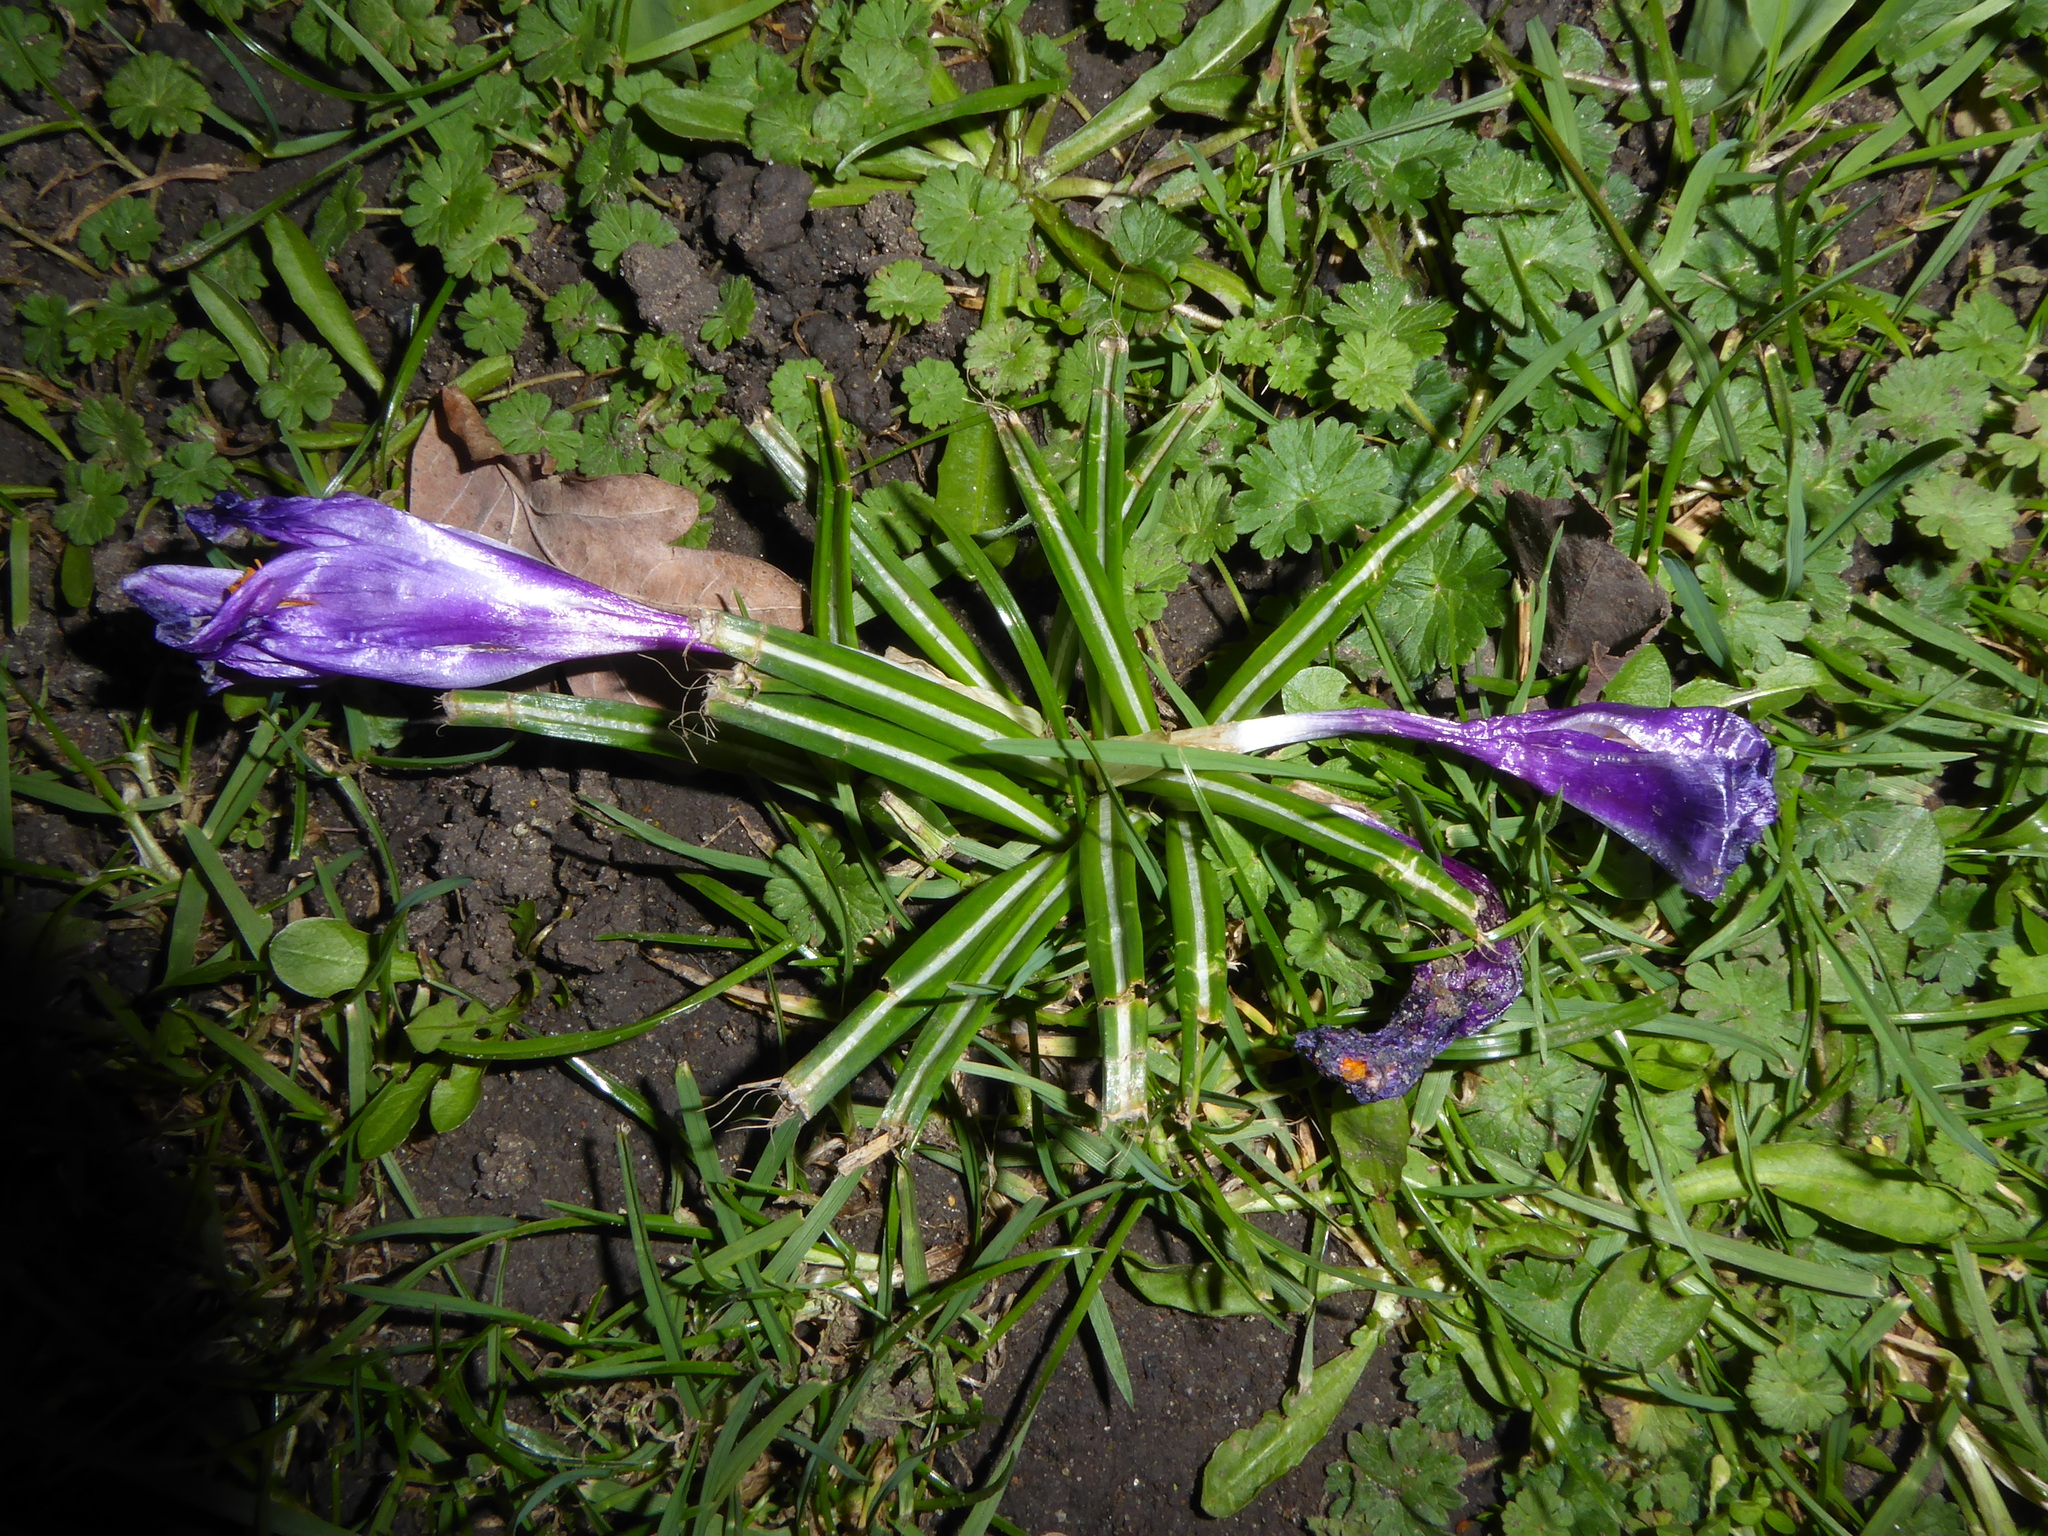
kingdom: Plantae
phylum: Tracheophyta
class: Liliopsida
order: Asparagales
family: Iridaceae
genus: Crocus
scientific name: Crocus neapolitanus
